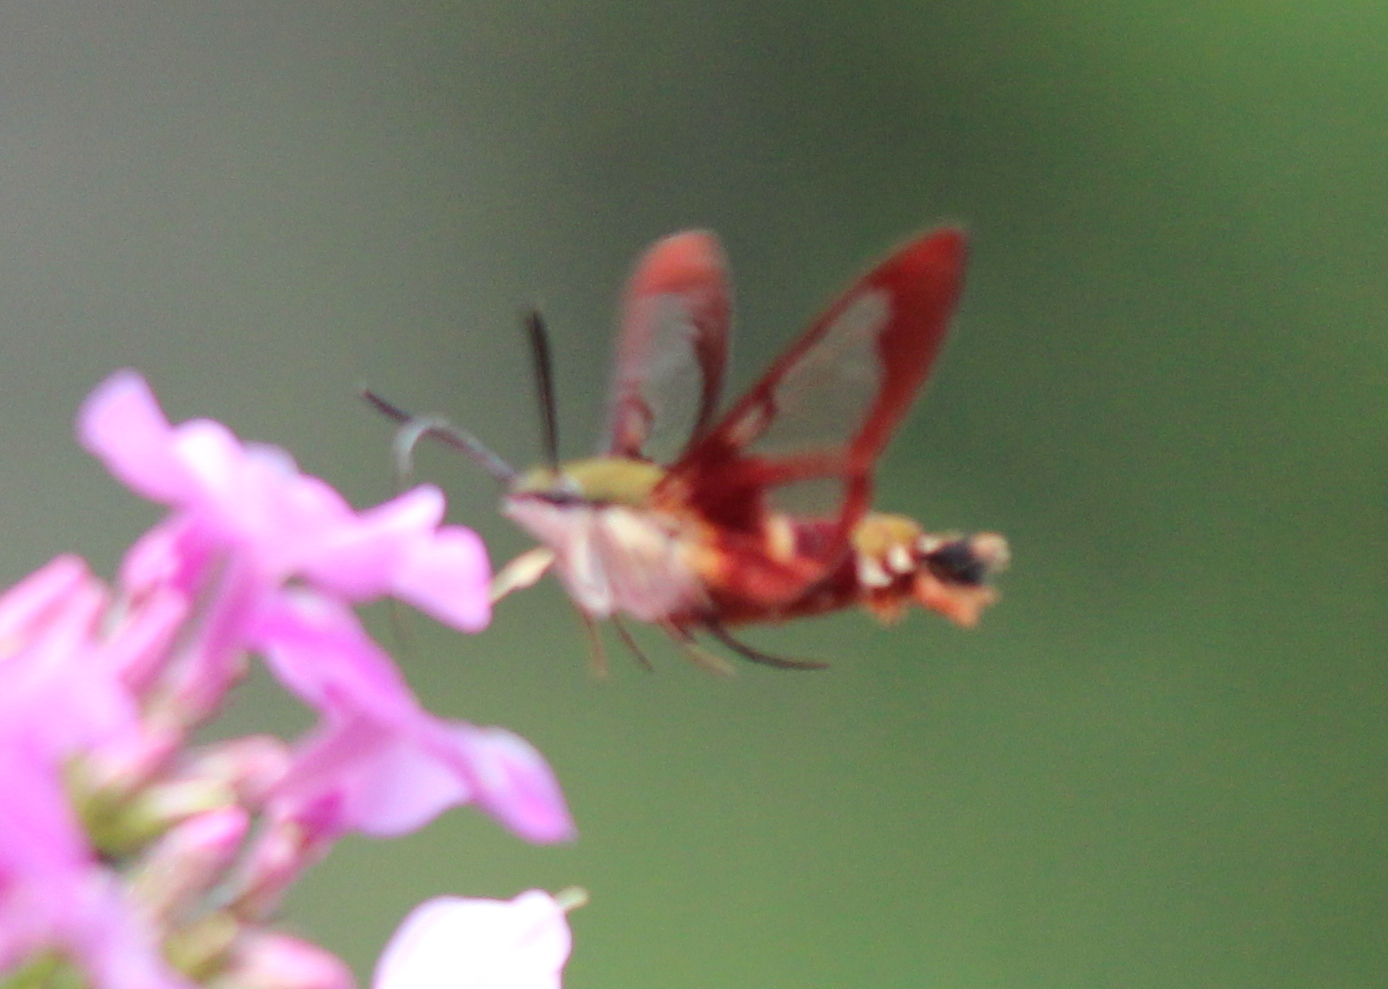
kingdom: Animalia
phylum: Arthropoda
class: Insecta
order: Lepidoptera
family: Sphingidae
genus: Hemaris
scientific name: Hemaris thysbe
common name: Common clear-wing
